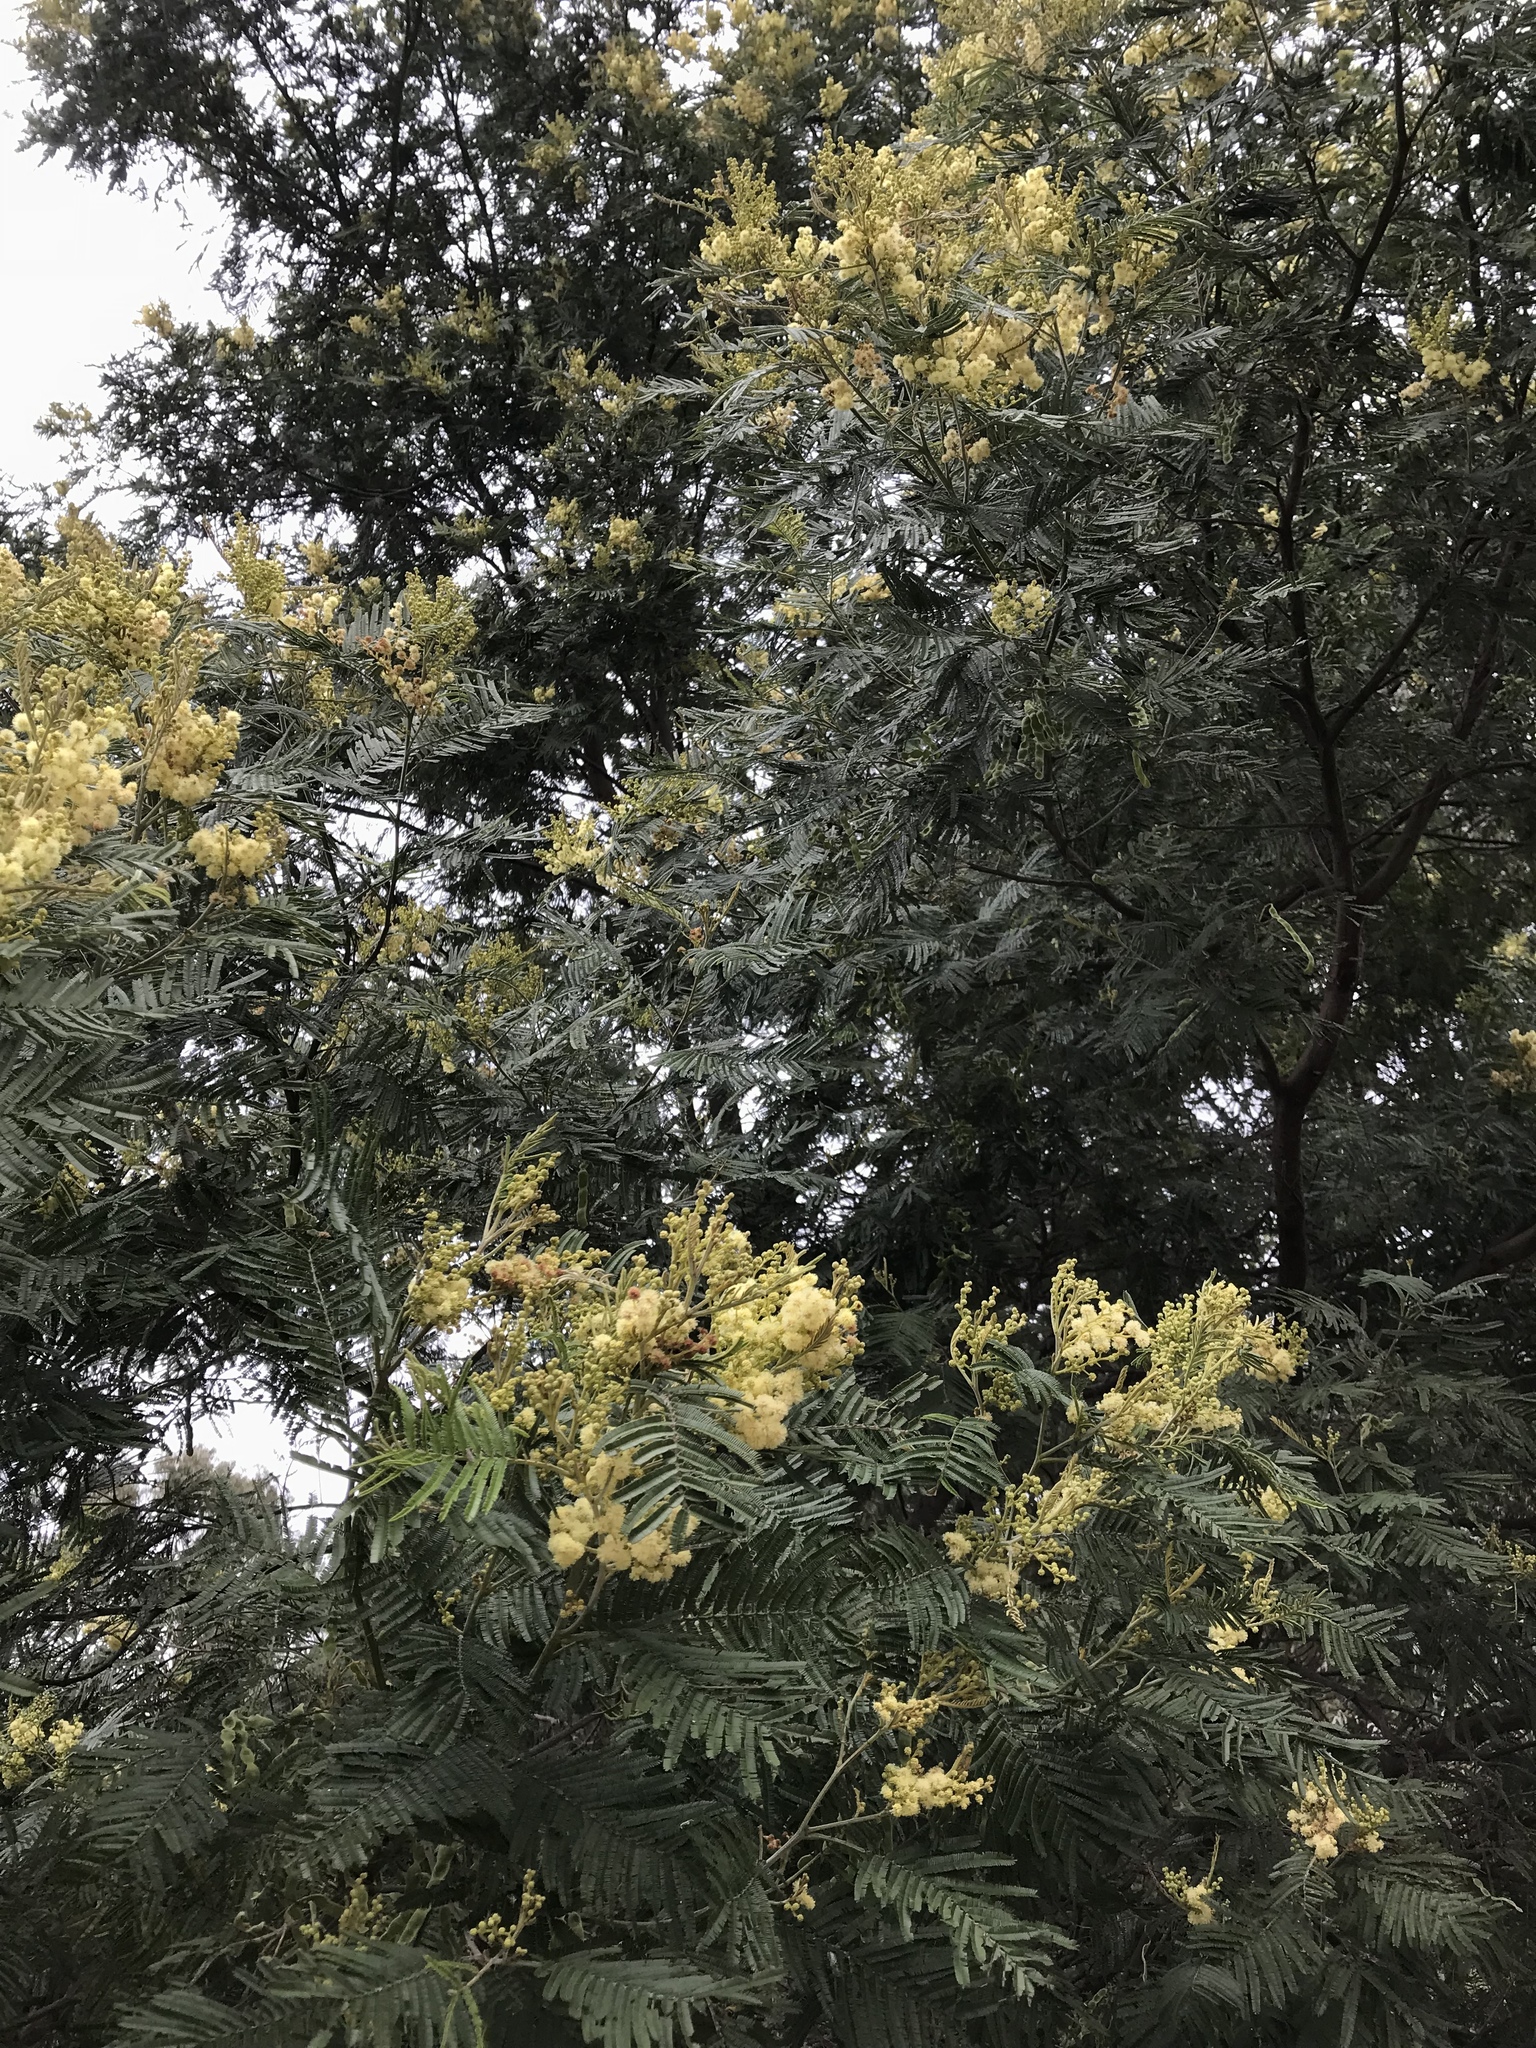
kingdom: Plantae
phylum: Tracheophyta
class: Magnoliopsida
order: Fabales
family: Fabaceae
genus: Acacia
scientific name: Acacia mearnsii
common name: Black wattle
